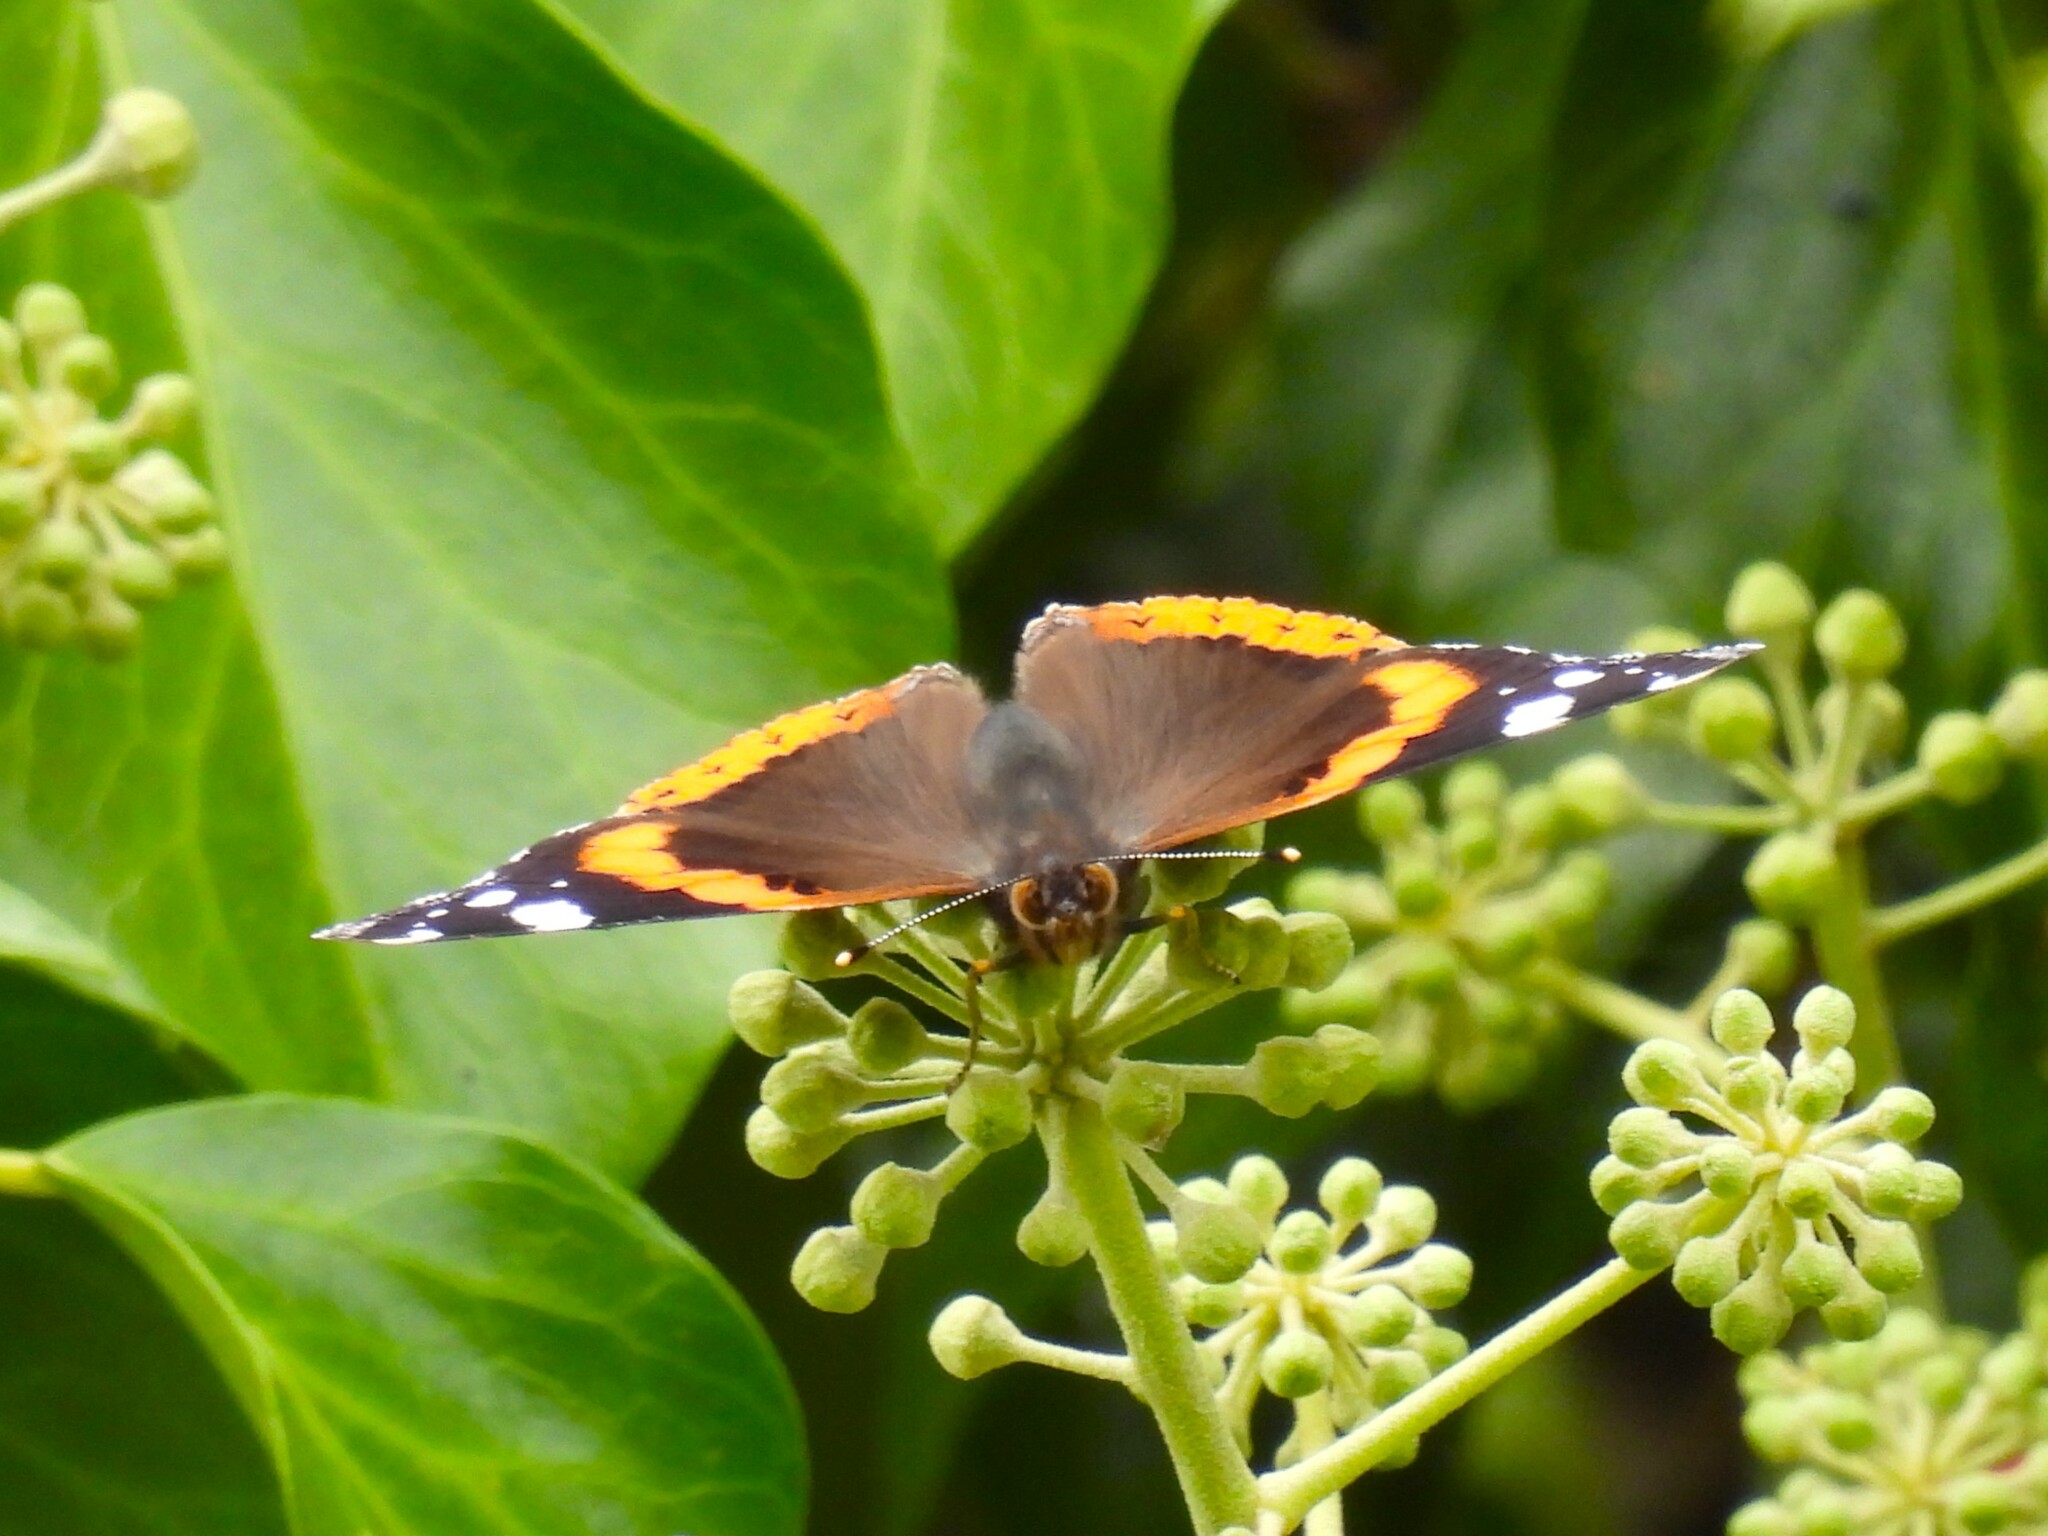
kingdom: Animalia
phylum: Arthropoda
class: Insecta
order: Lepidoptera
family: Nymphalidae
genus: Vanessa
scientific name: Vanessa atalanta
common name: Red admiral
